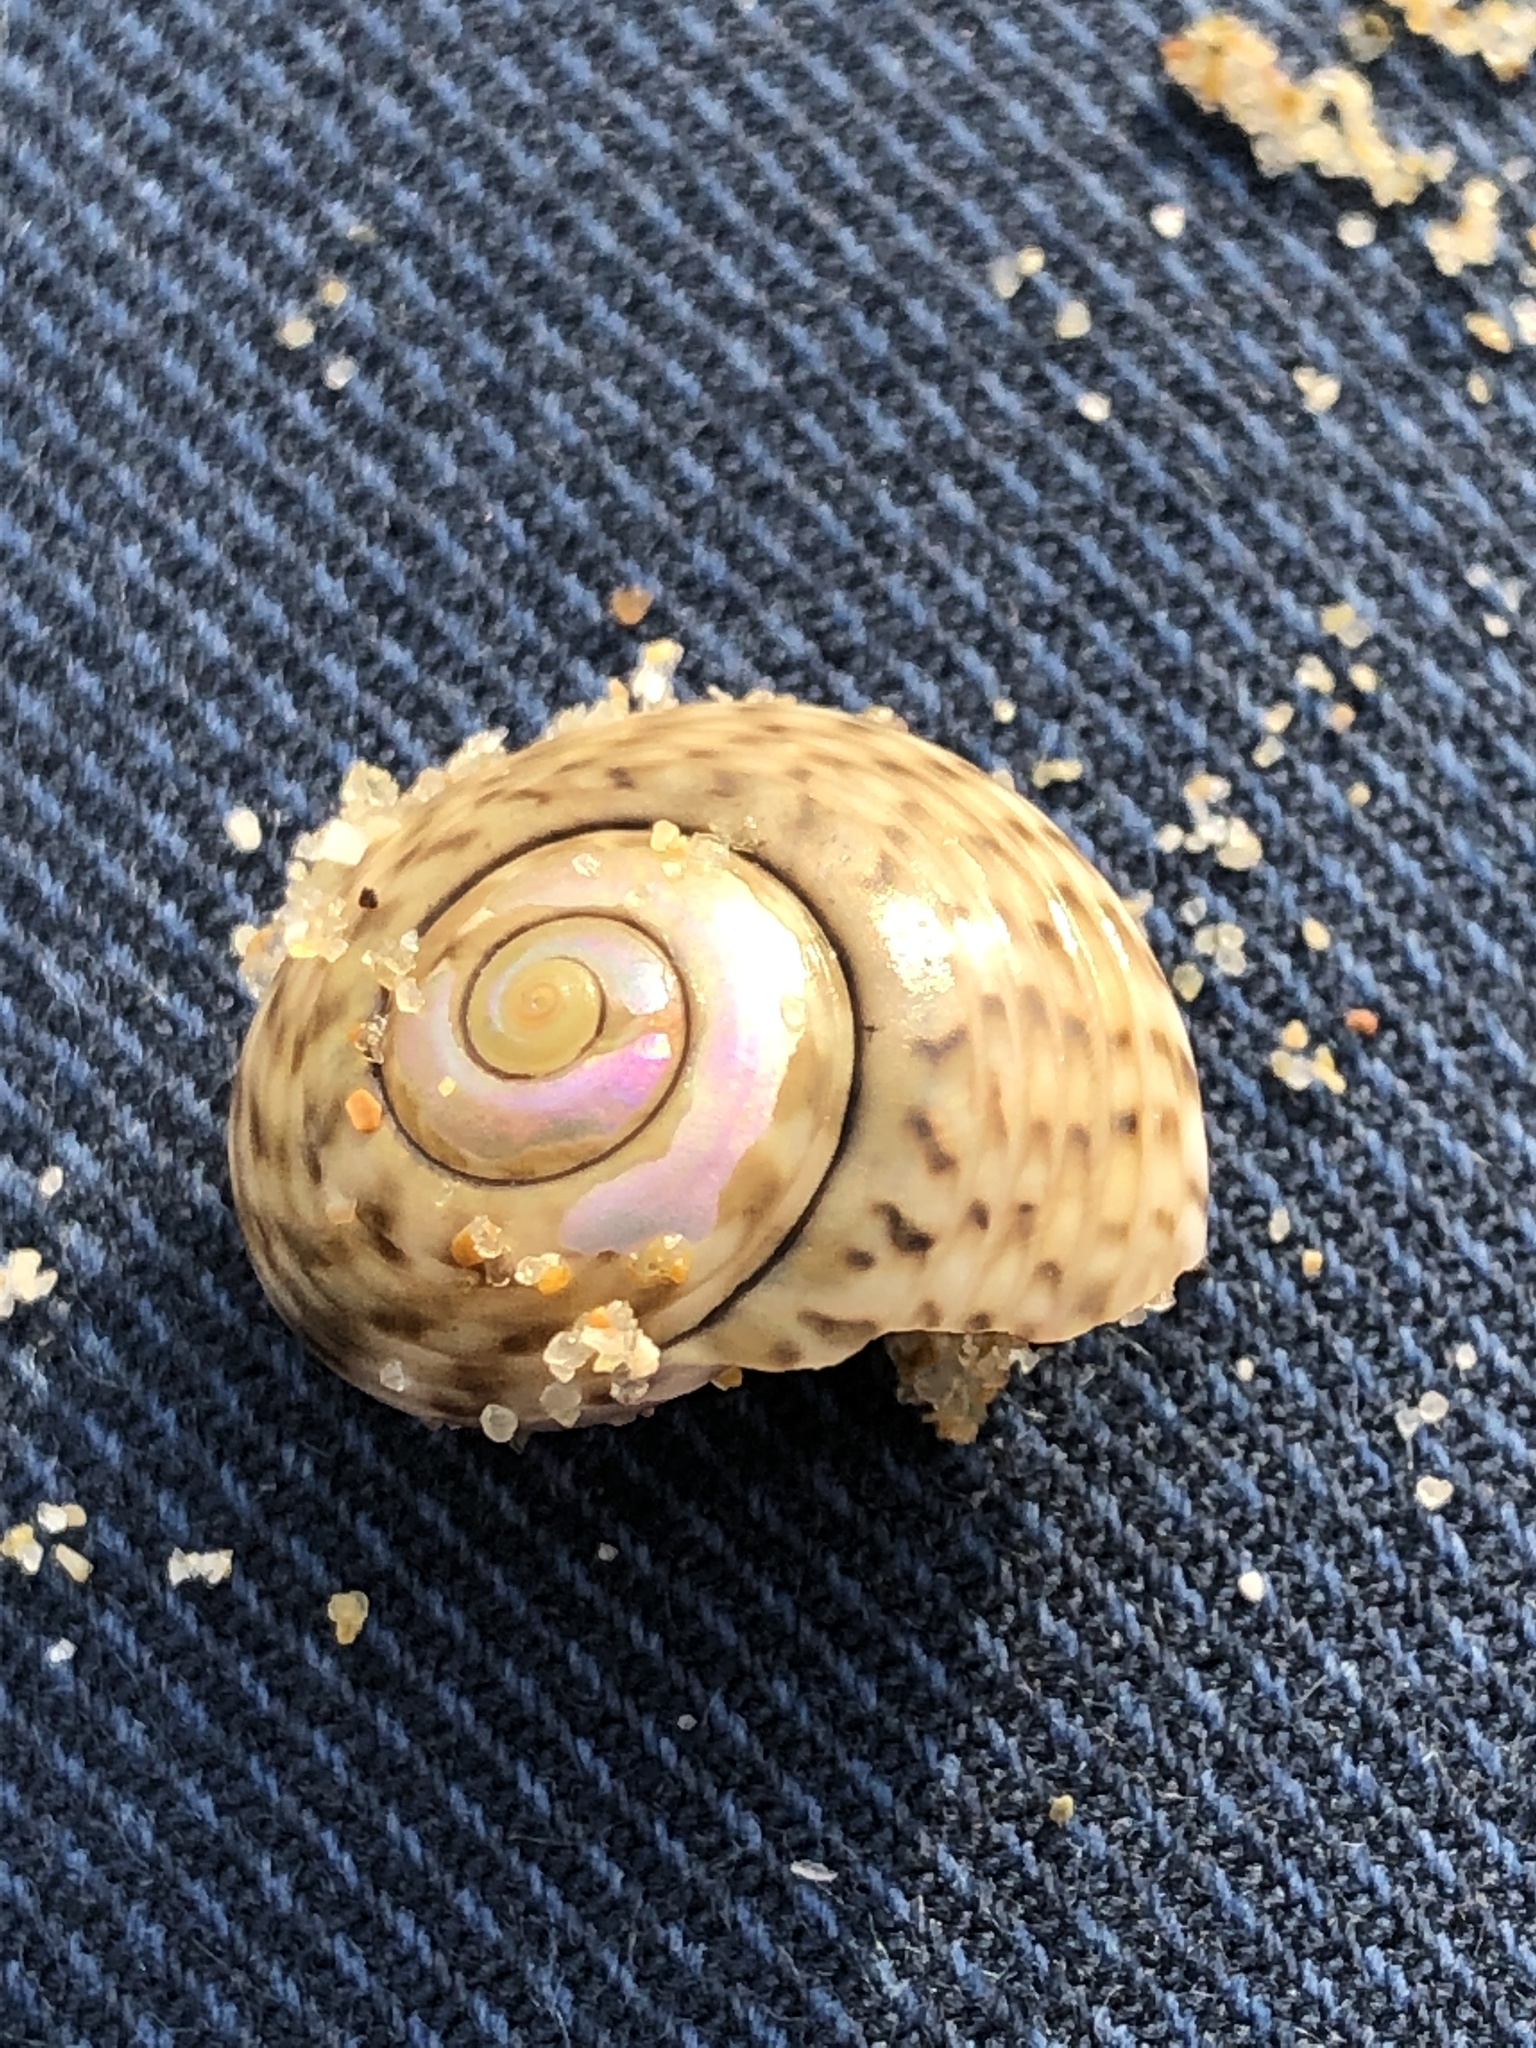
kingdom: Animalia
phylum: Mollusca
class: Gastropoda
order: Trochida
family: Trochidae
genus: Umbonium
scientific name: Umbonium costatum
